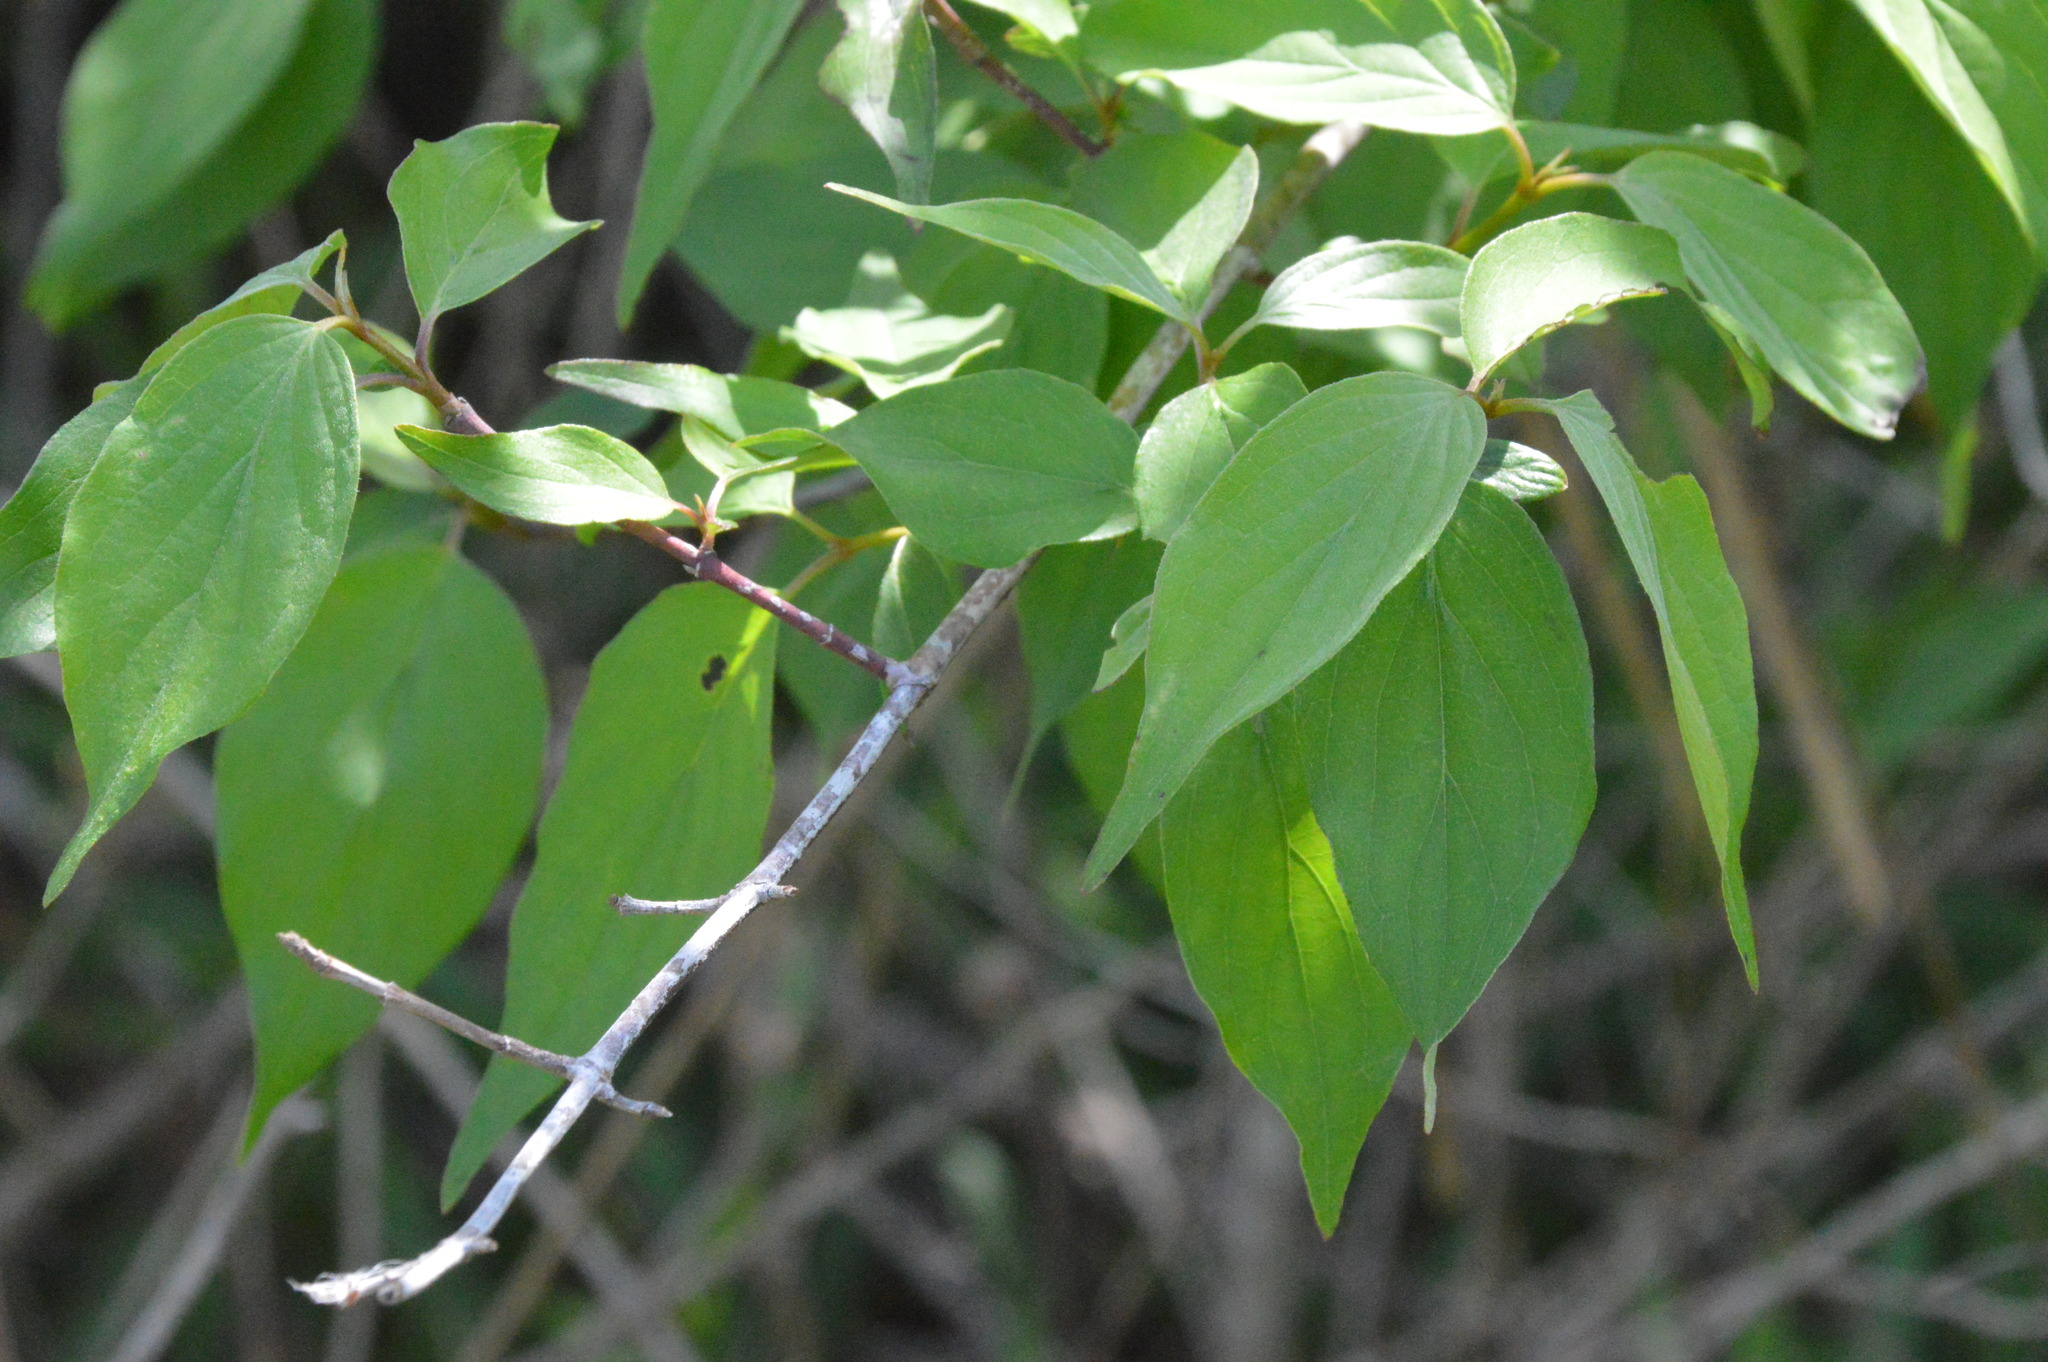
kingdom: Plantae
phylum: Tracheophyta
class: Magnoliopsida
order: Cornales
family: Cornaceae
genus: Cornus
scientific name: Cornus drummondii
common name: Rough-leaf dogwood
